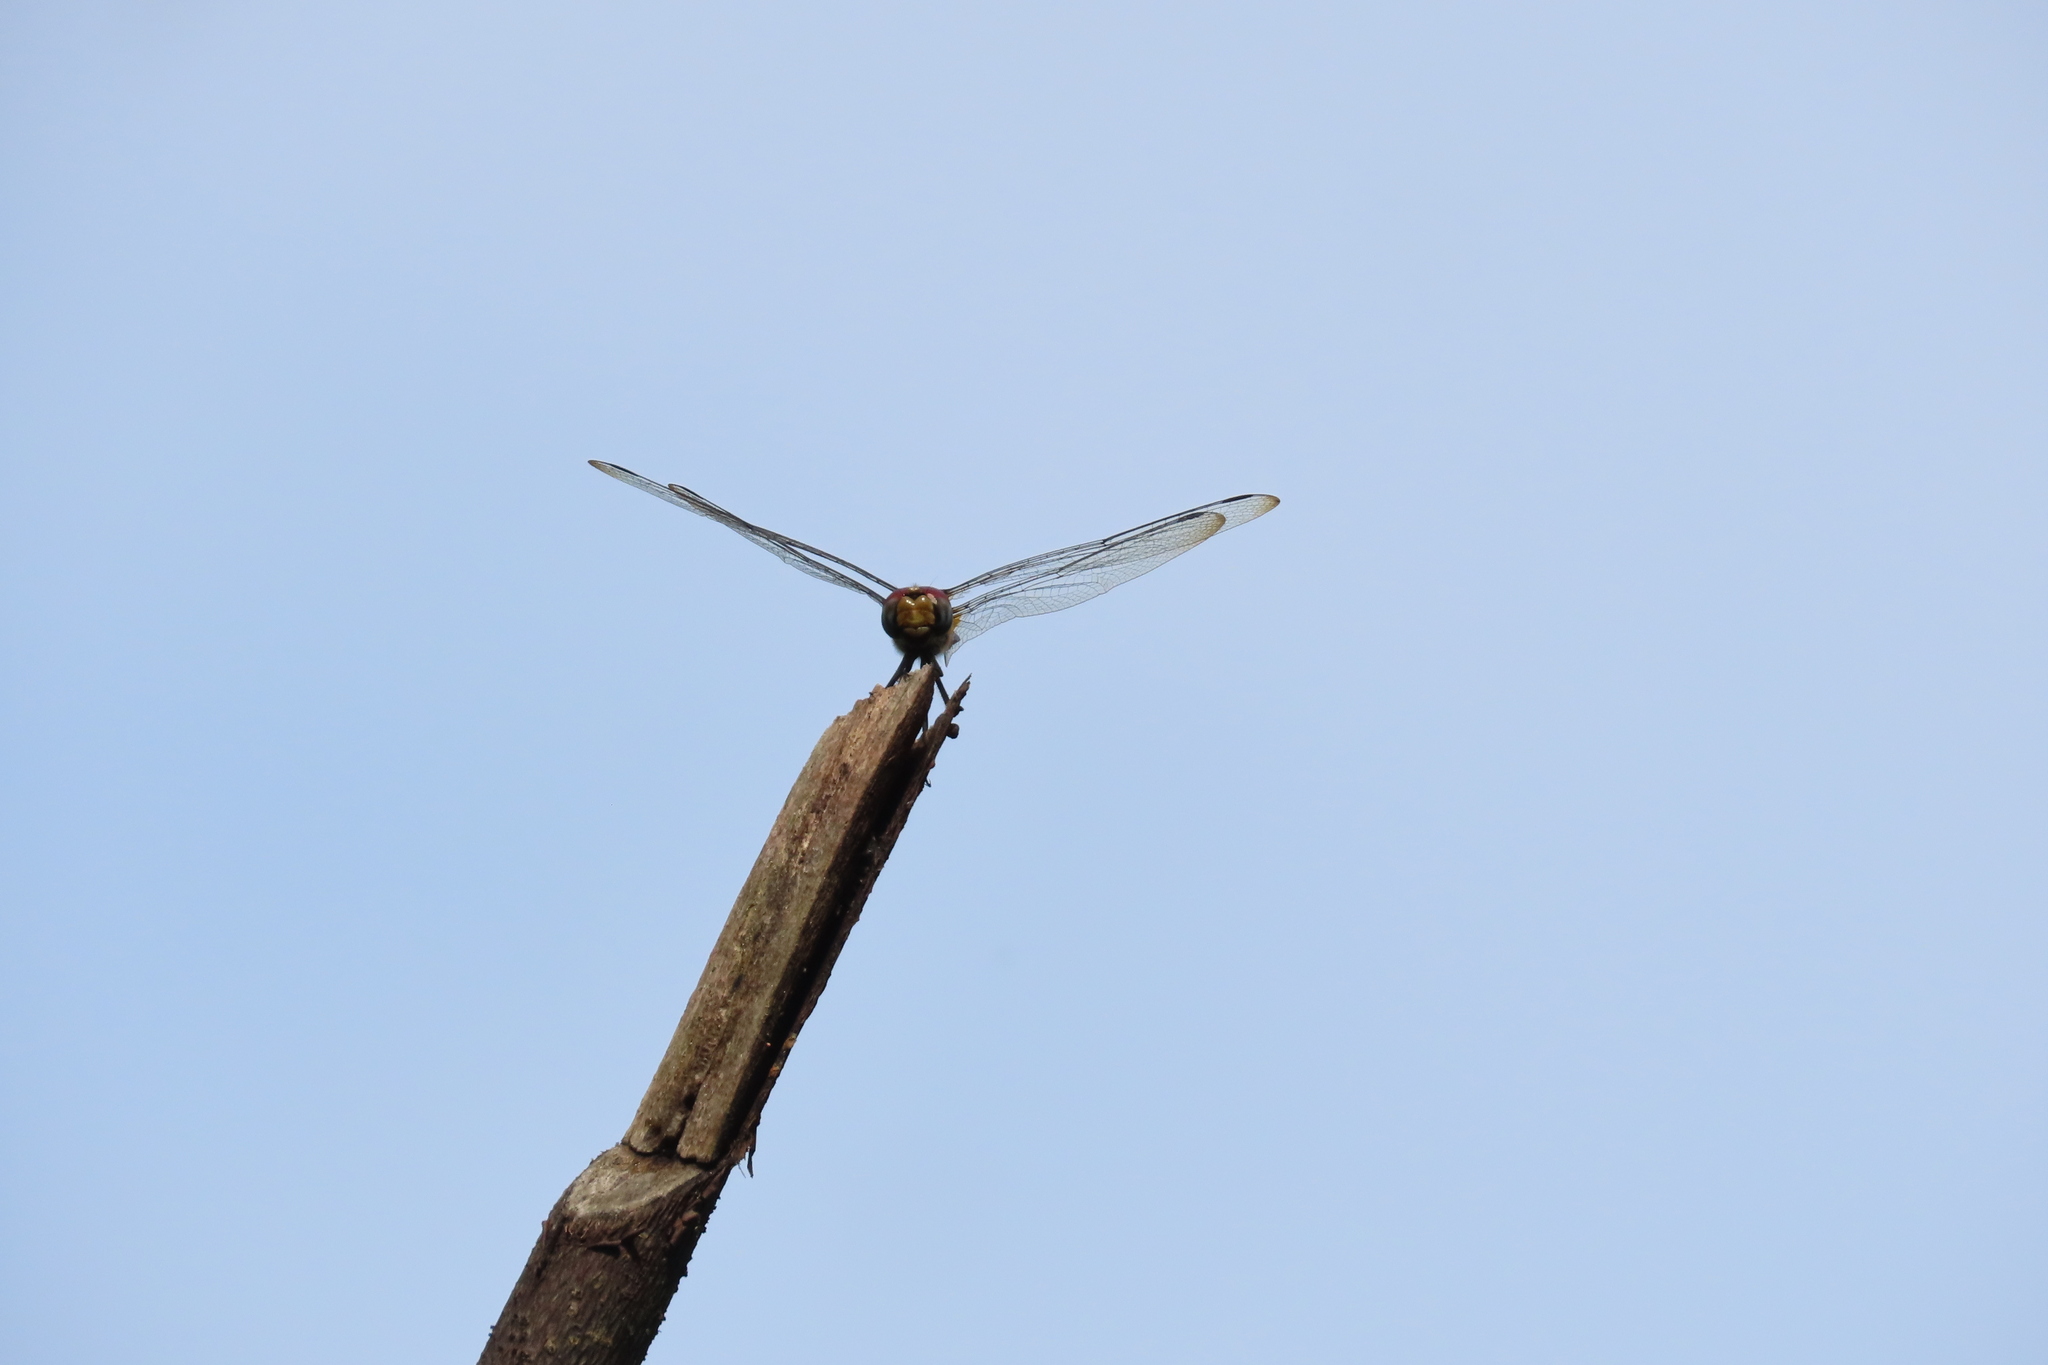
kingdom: Animalia
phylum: Arthropoda
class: Insecta
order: Odonata
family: Libellulidae
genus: Urothemis
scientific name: Urothemis signata
